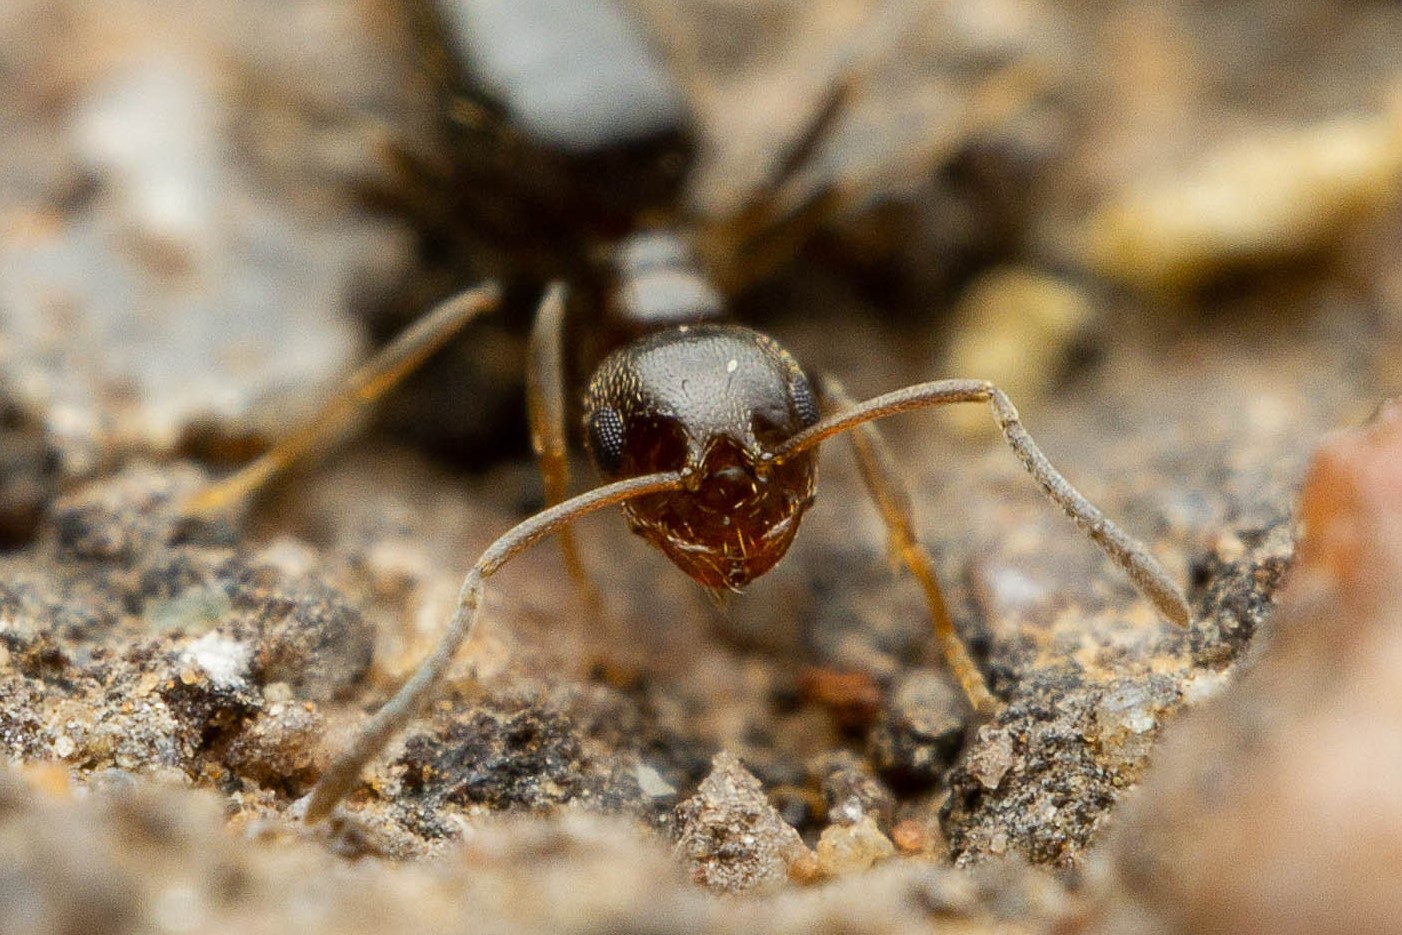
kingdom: Animalia
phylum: Arthropoda
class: Insecta
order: Hymenoptera
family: Formicidae
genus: Brachymyrmex
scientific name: Brachymyrmex patagonicus
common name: Dark rover ant
